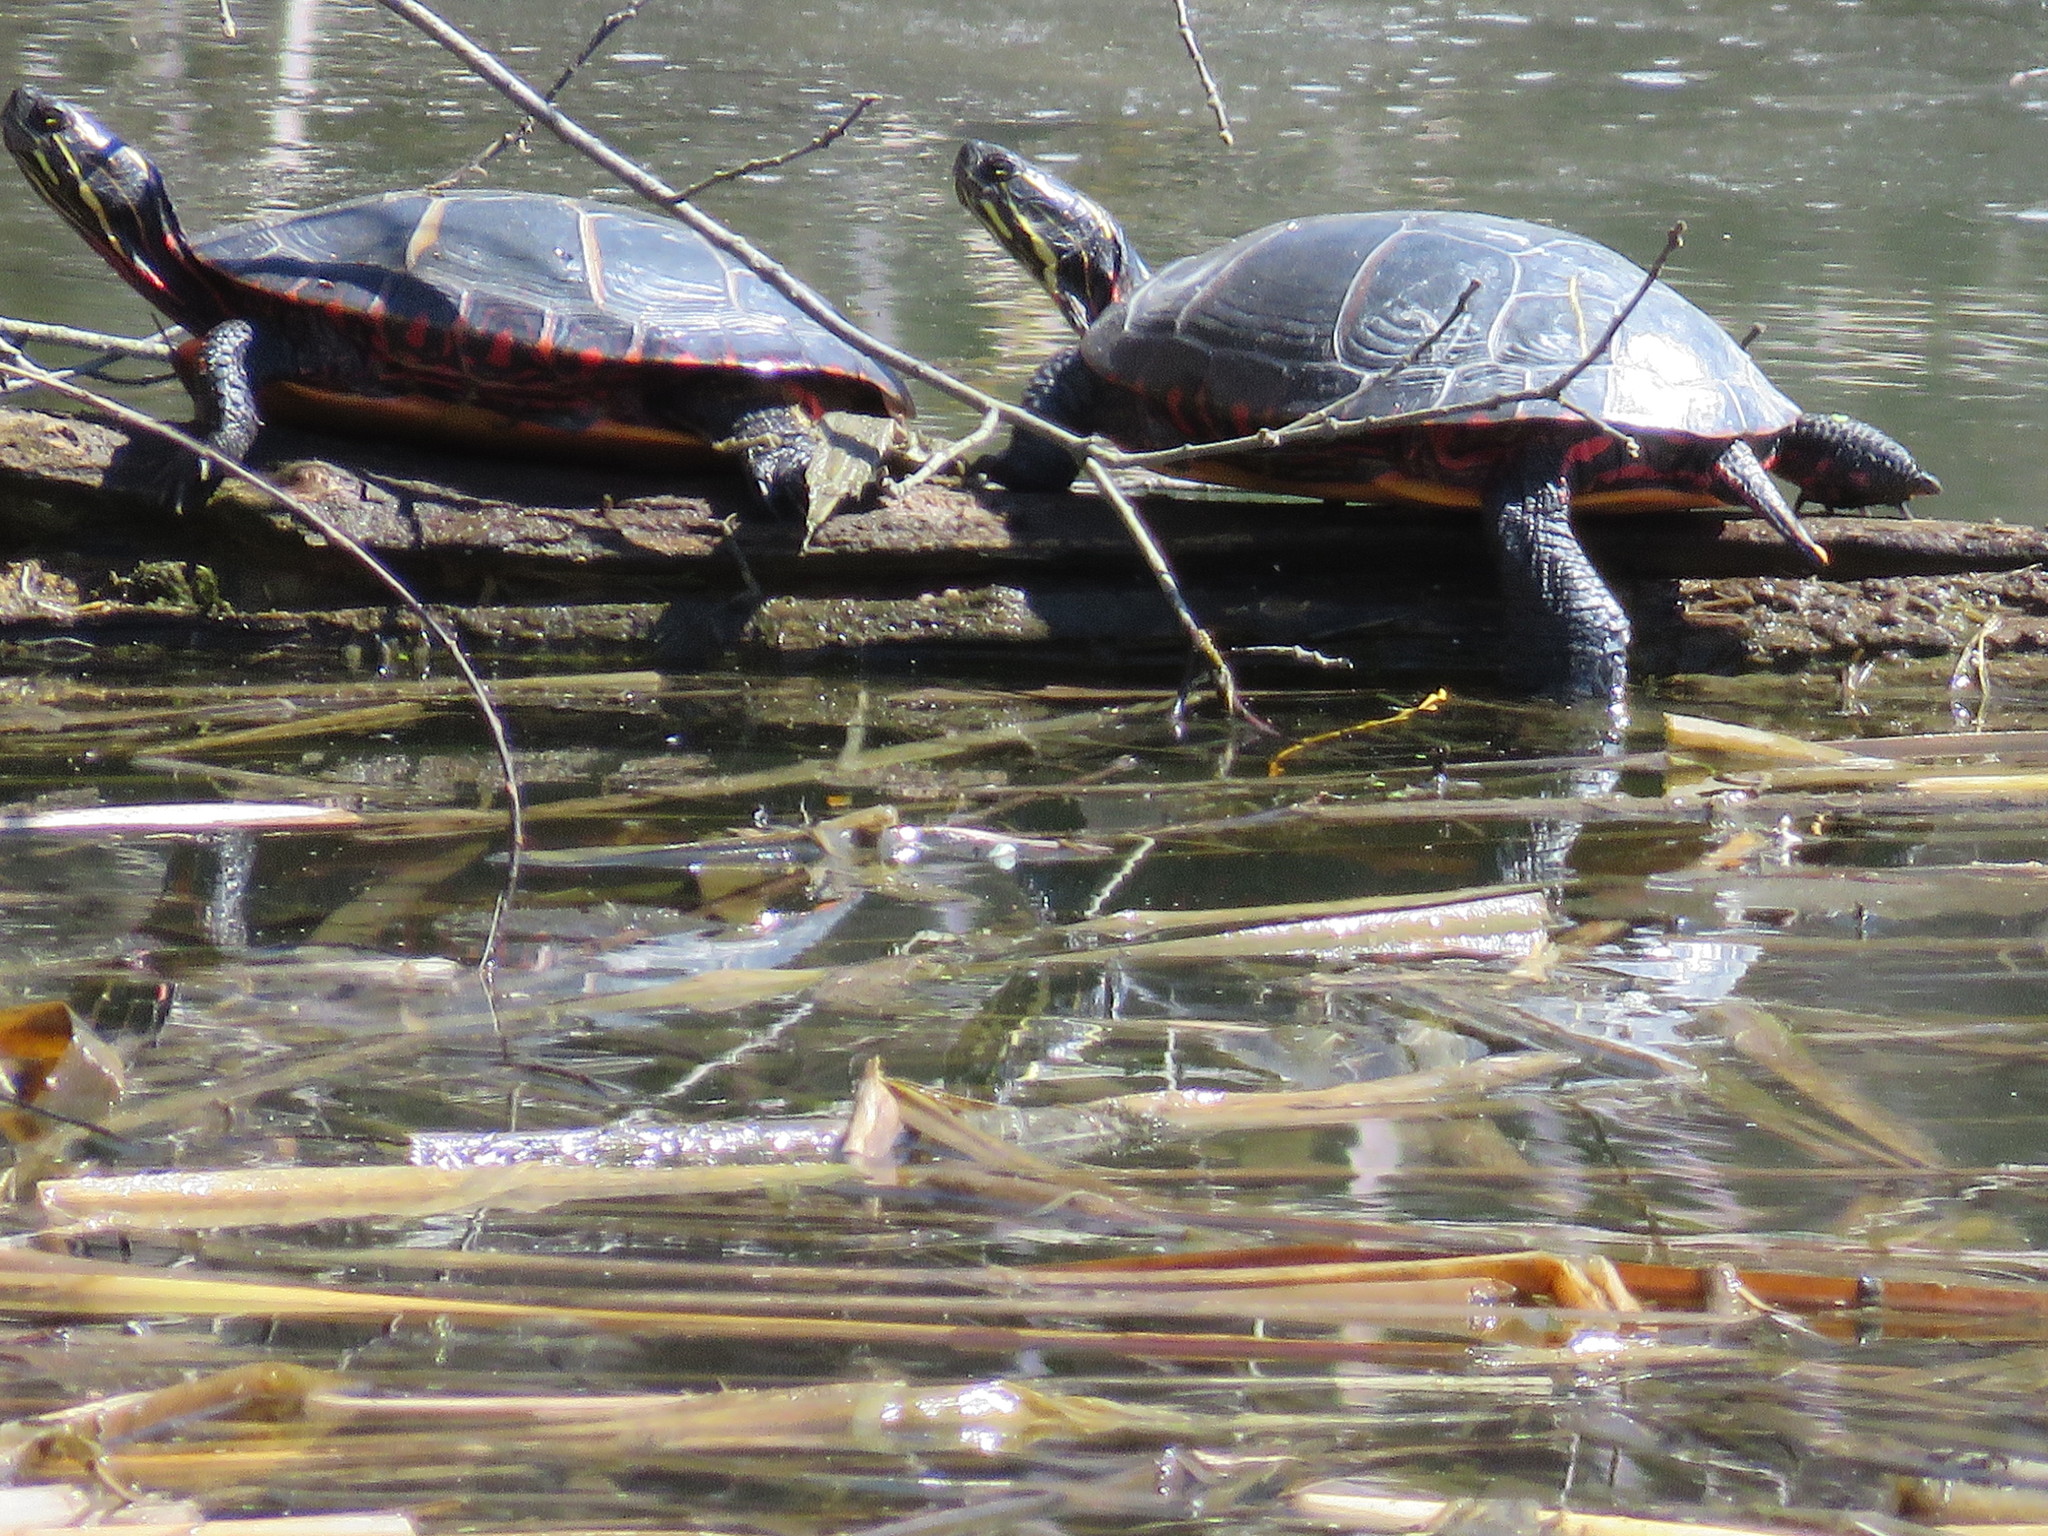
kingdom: Animalia
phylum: Chordata
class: Testudines
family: Emydidae
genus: Chrysemys
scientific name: Chrysemys picta
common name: Painted turtle
